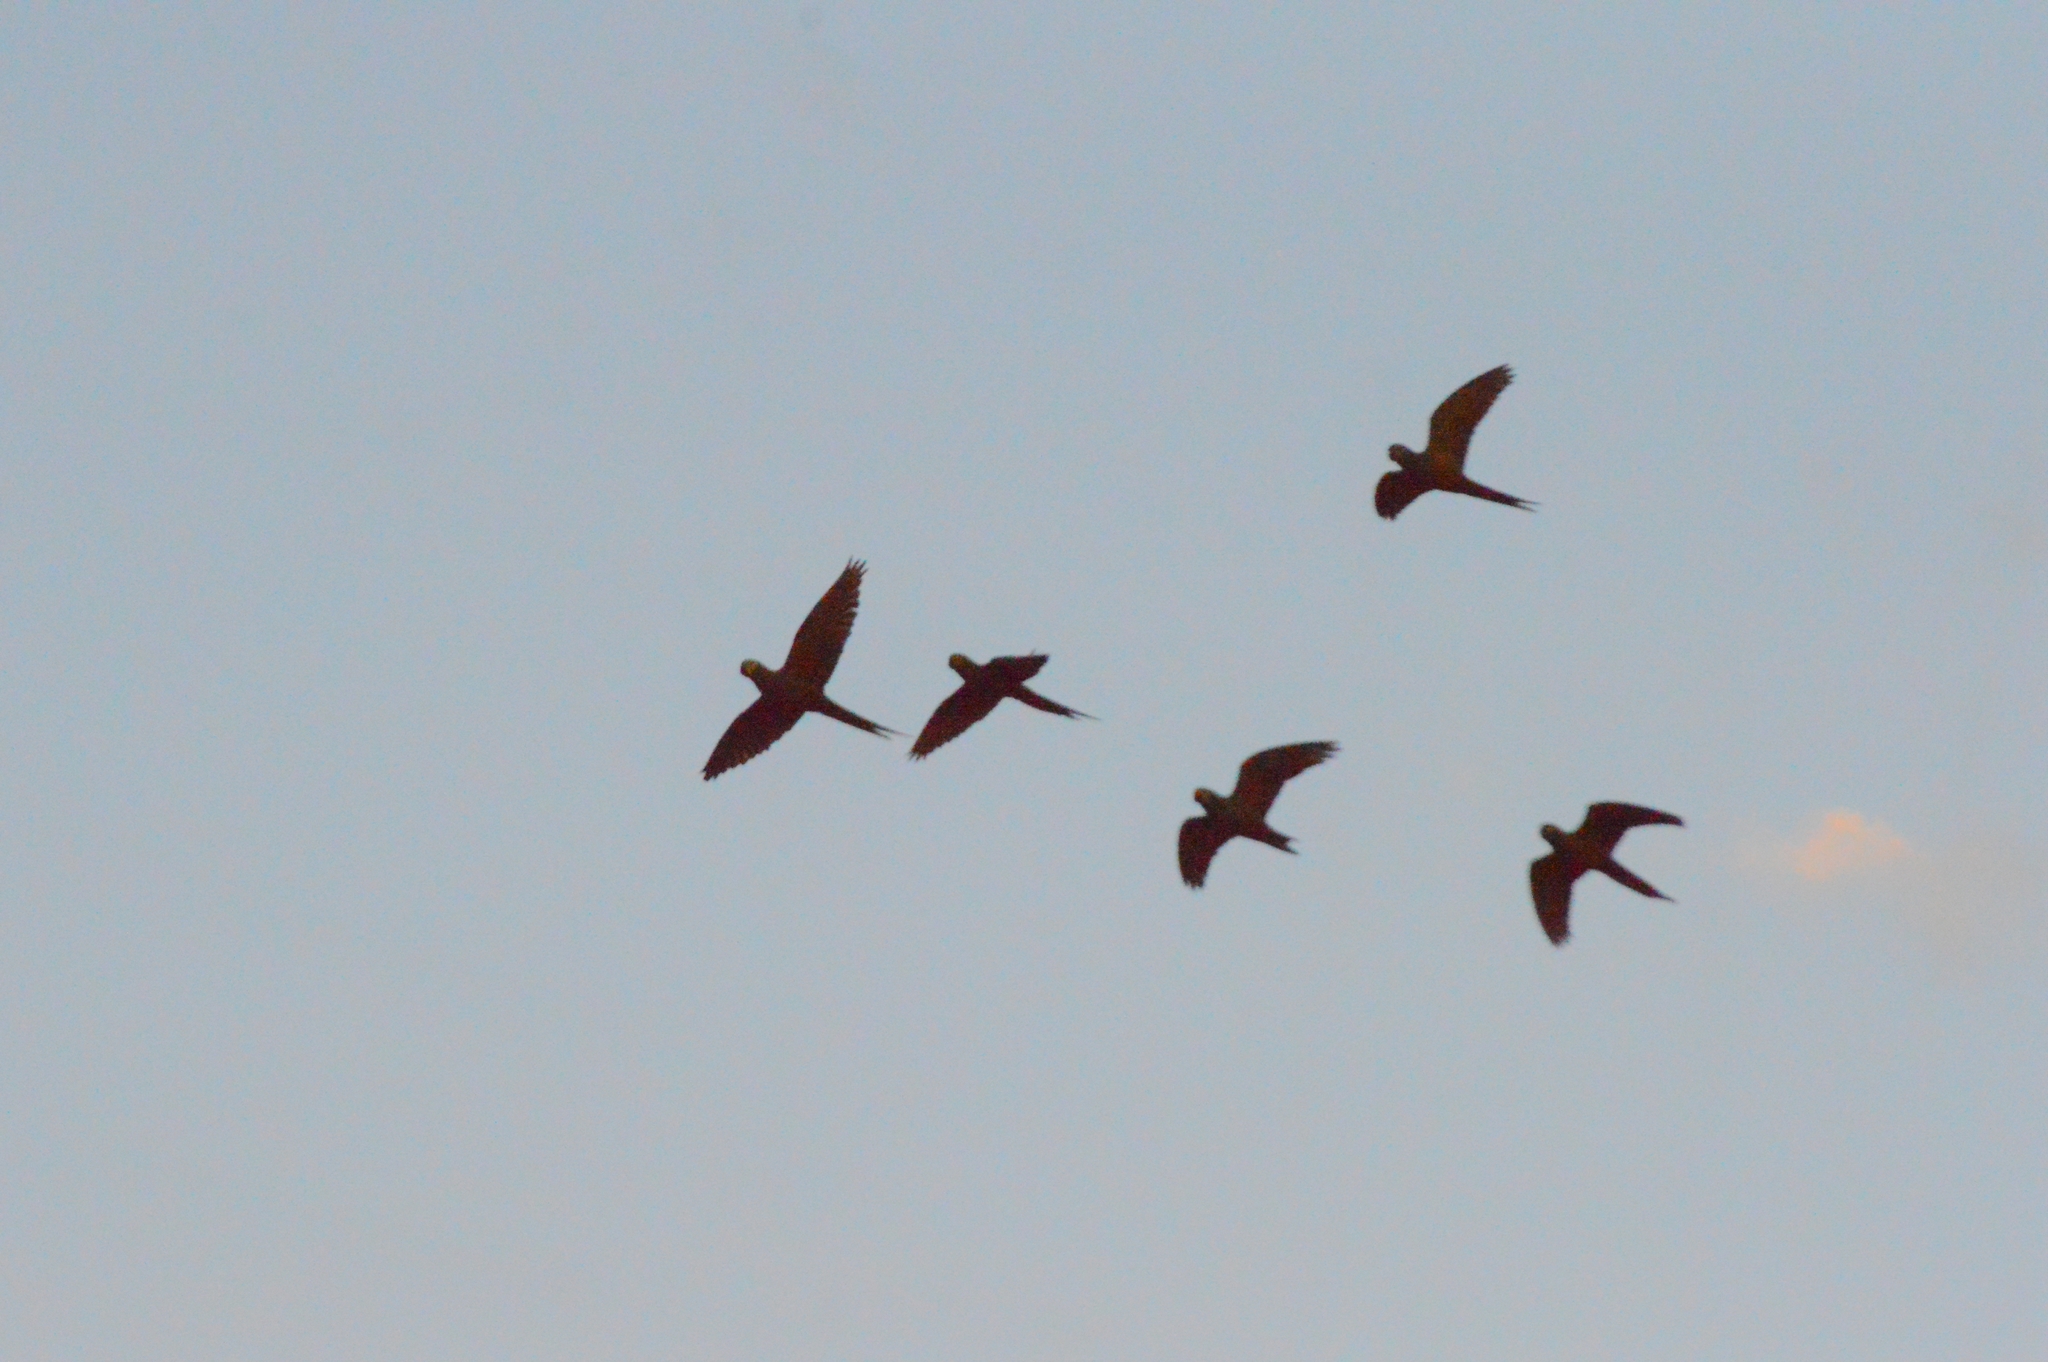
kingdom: Animalia
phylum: Chordata
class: Aves
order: Psittaciformes
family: Psittacidae
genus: Orthopsittaca
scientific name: Orthopsittaca manilata
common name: Red-bellied macaw
